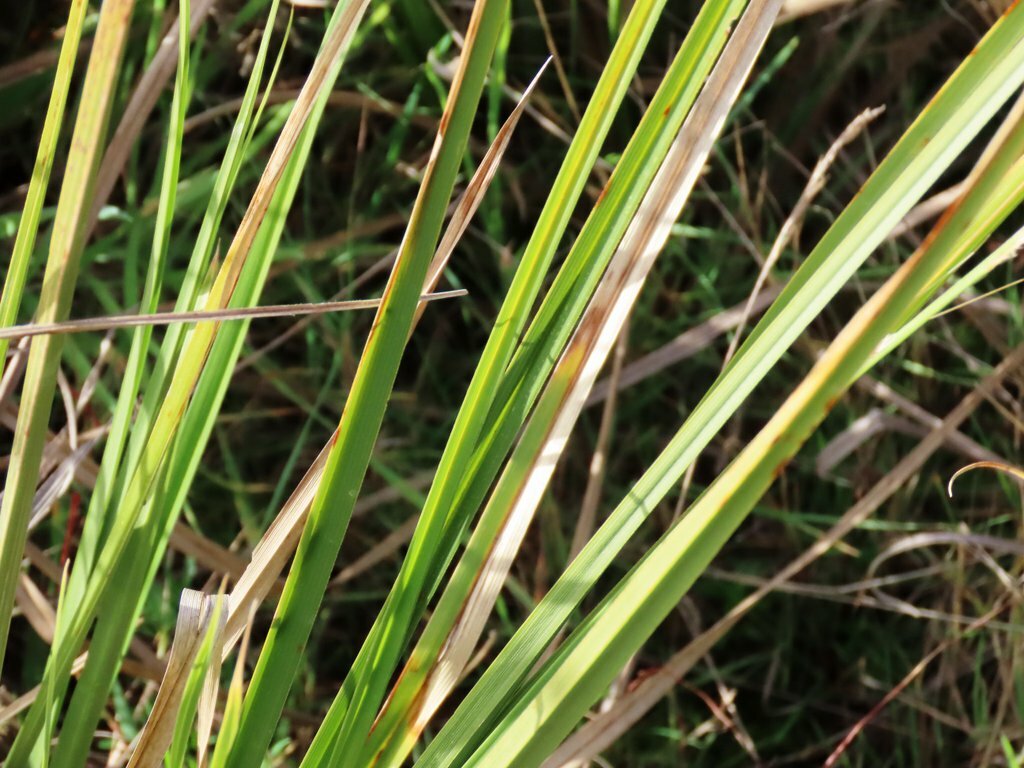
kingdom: Plantae
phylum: Tracheophyta
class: Liliopsida
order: Poales
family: Cyperaceae
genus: Carex
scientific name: Carex appressa
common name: Tussock sedge
